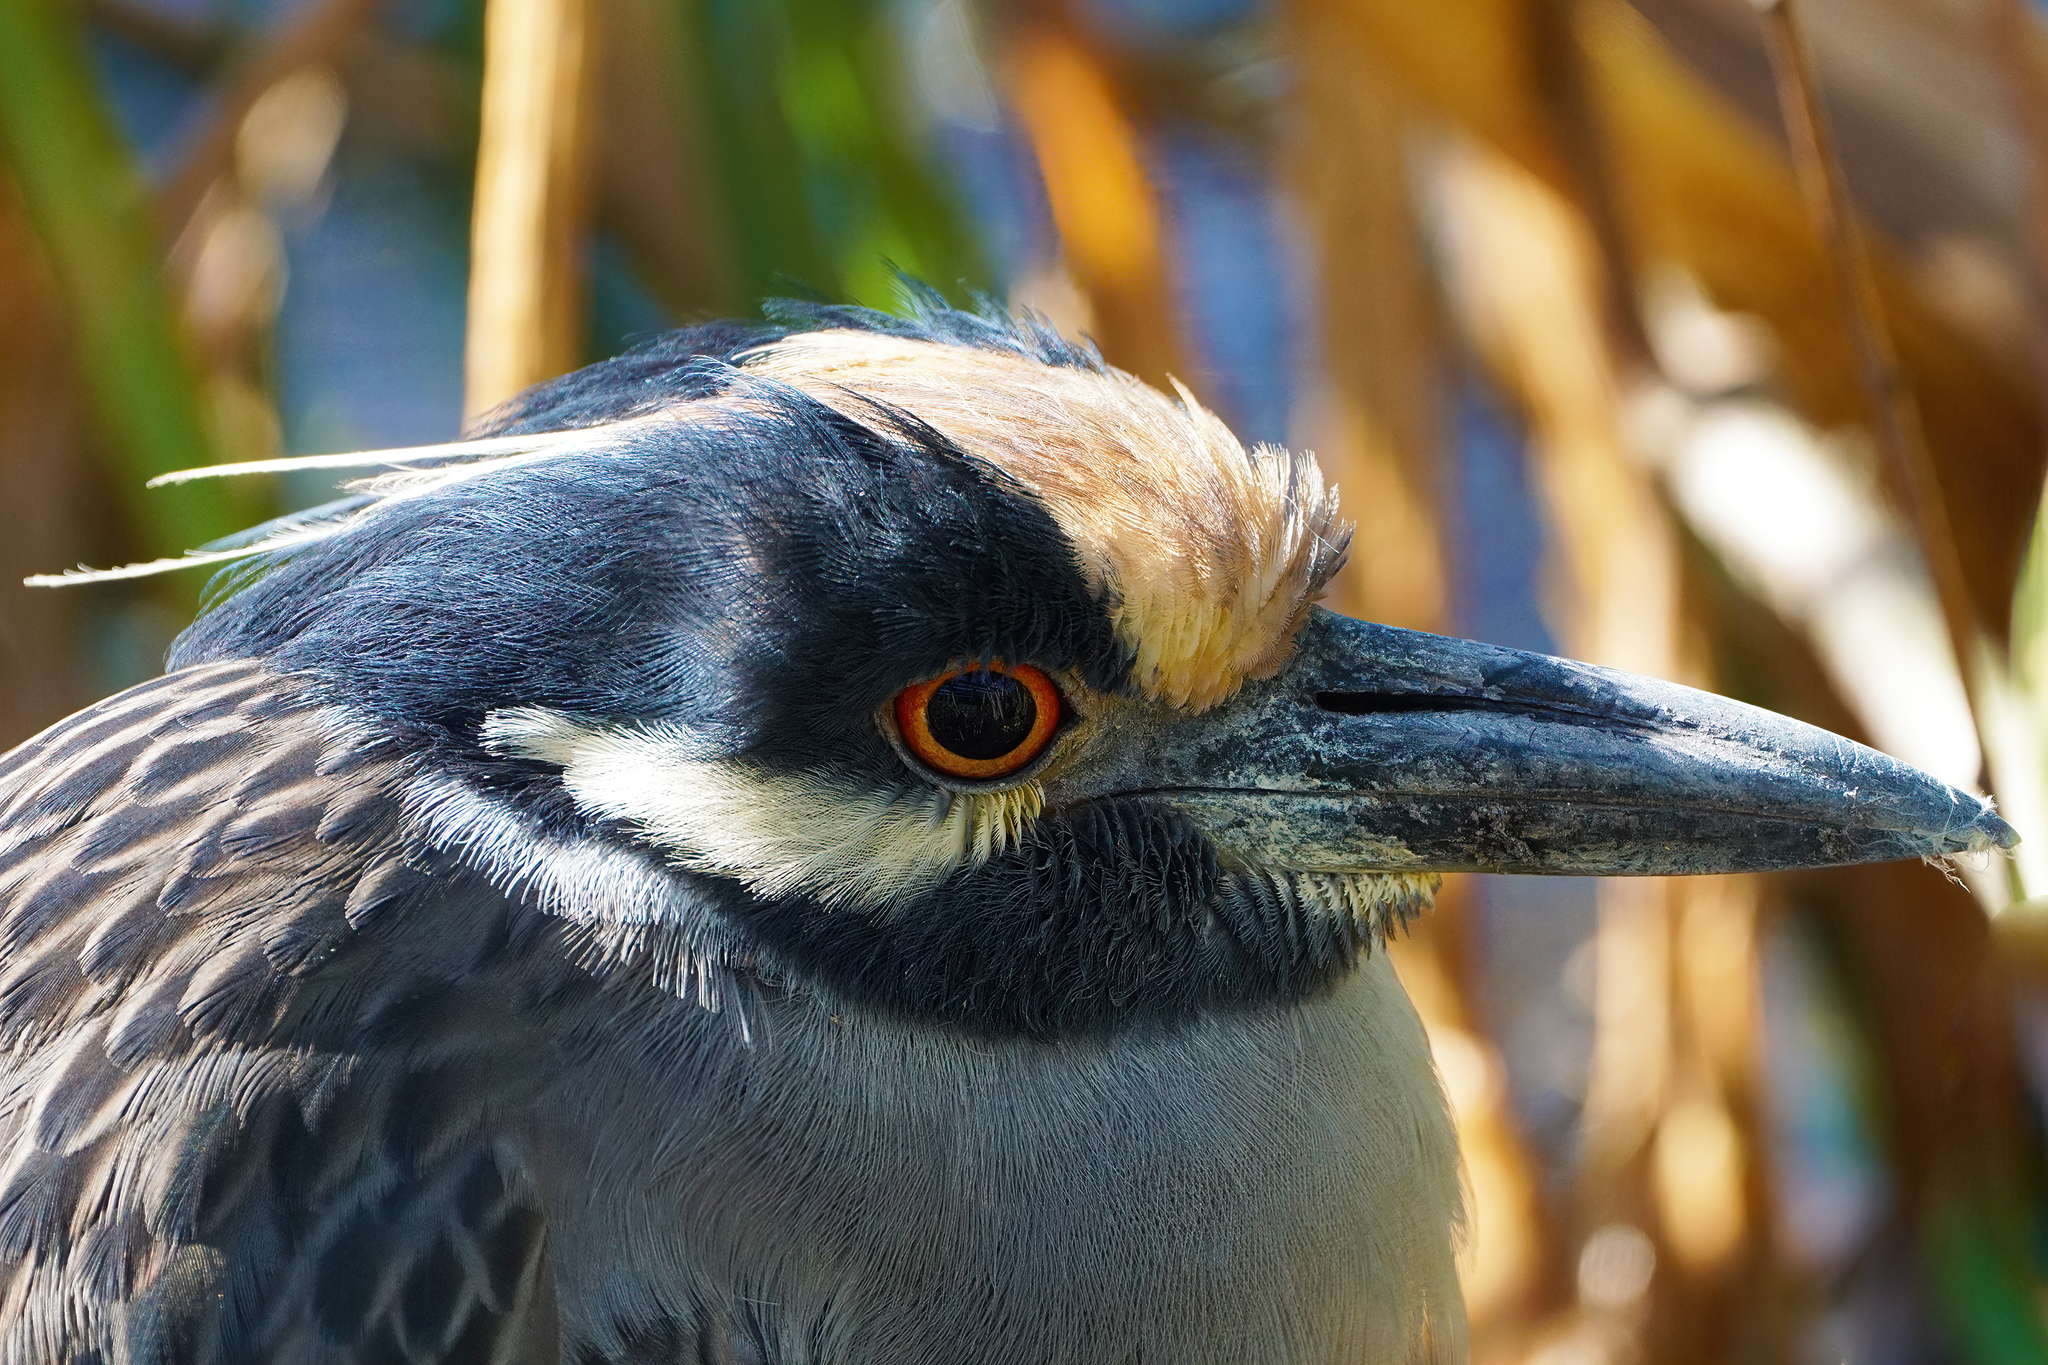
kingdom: Animalia
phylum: Chordata
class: Aves
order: Pelecaniformes
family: Ardeidae
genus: Nyctanassa
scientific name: Nyctanassa violacea
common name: Yellow-crowned night heron
